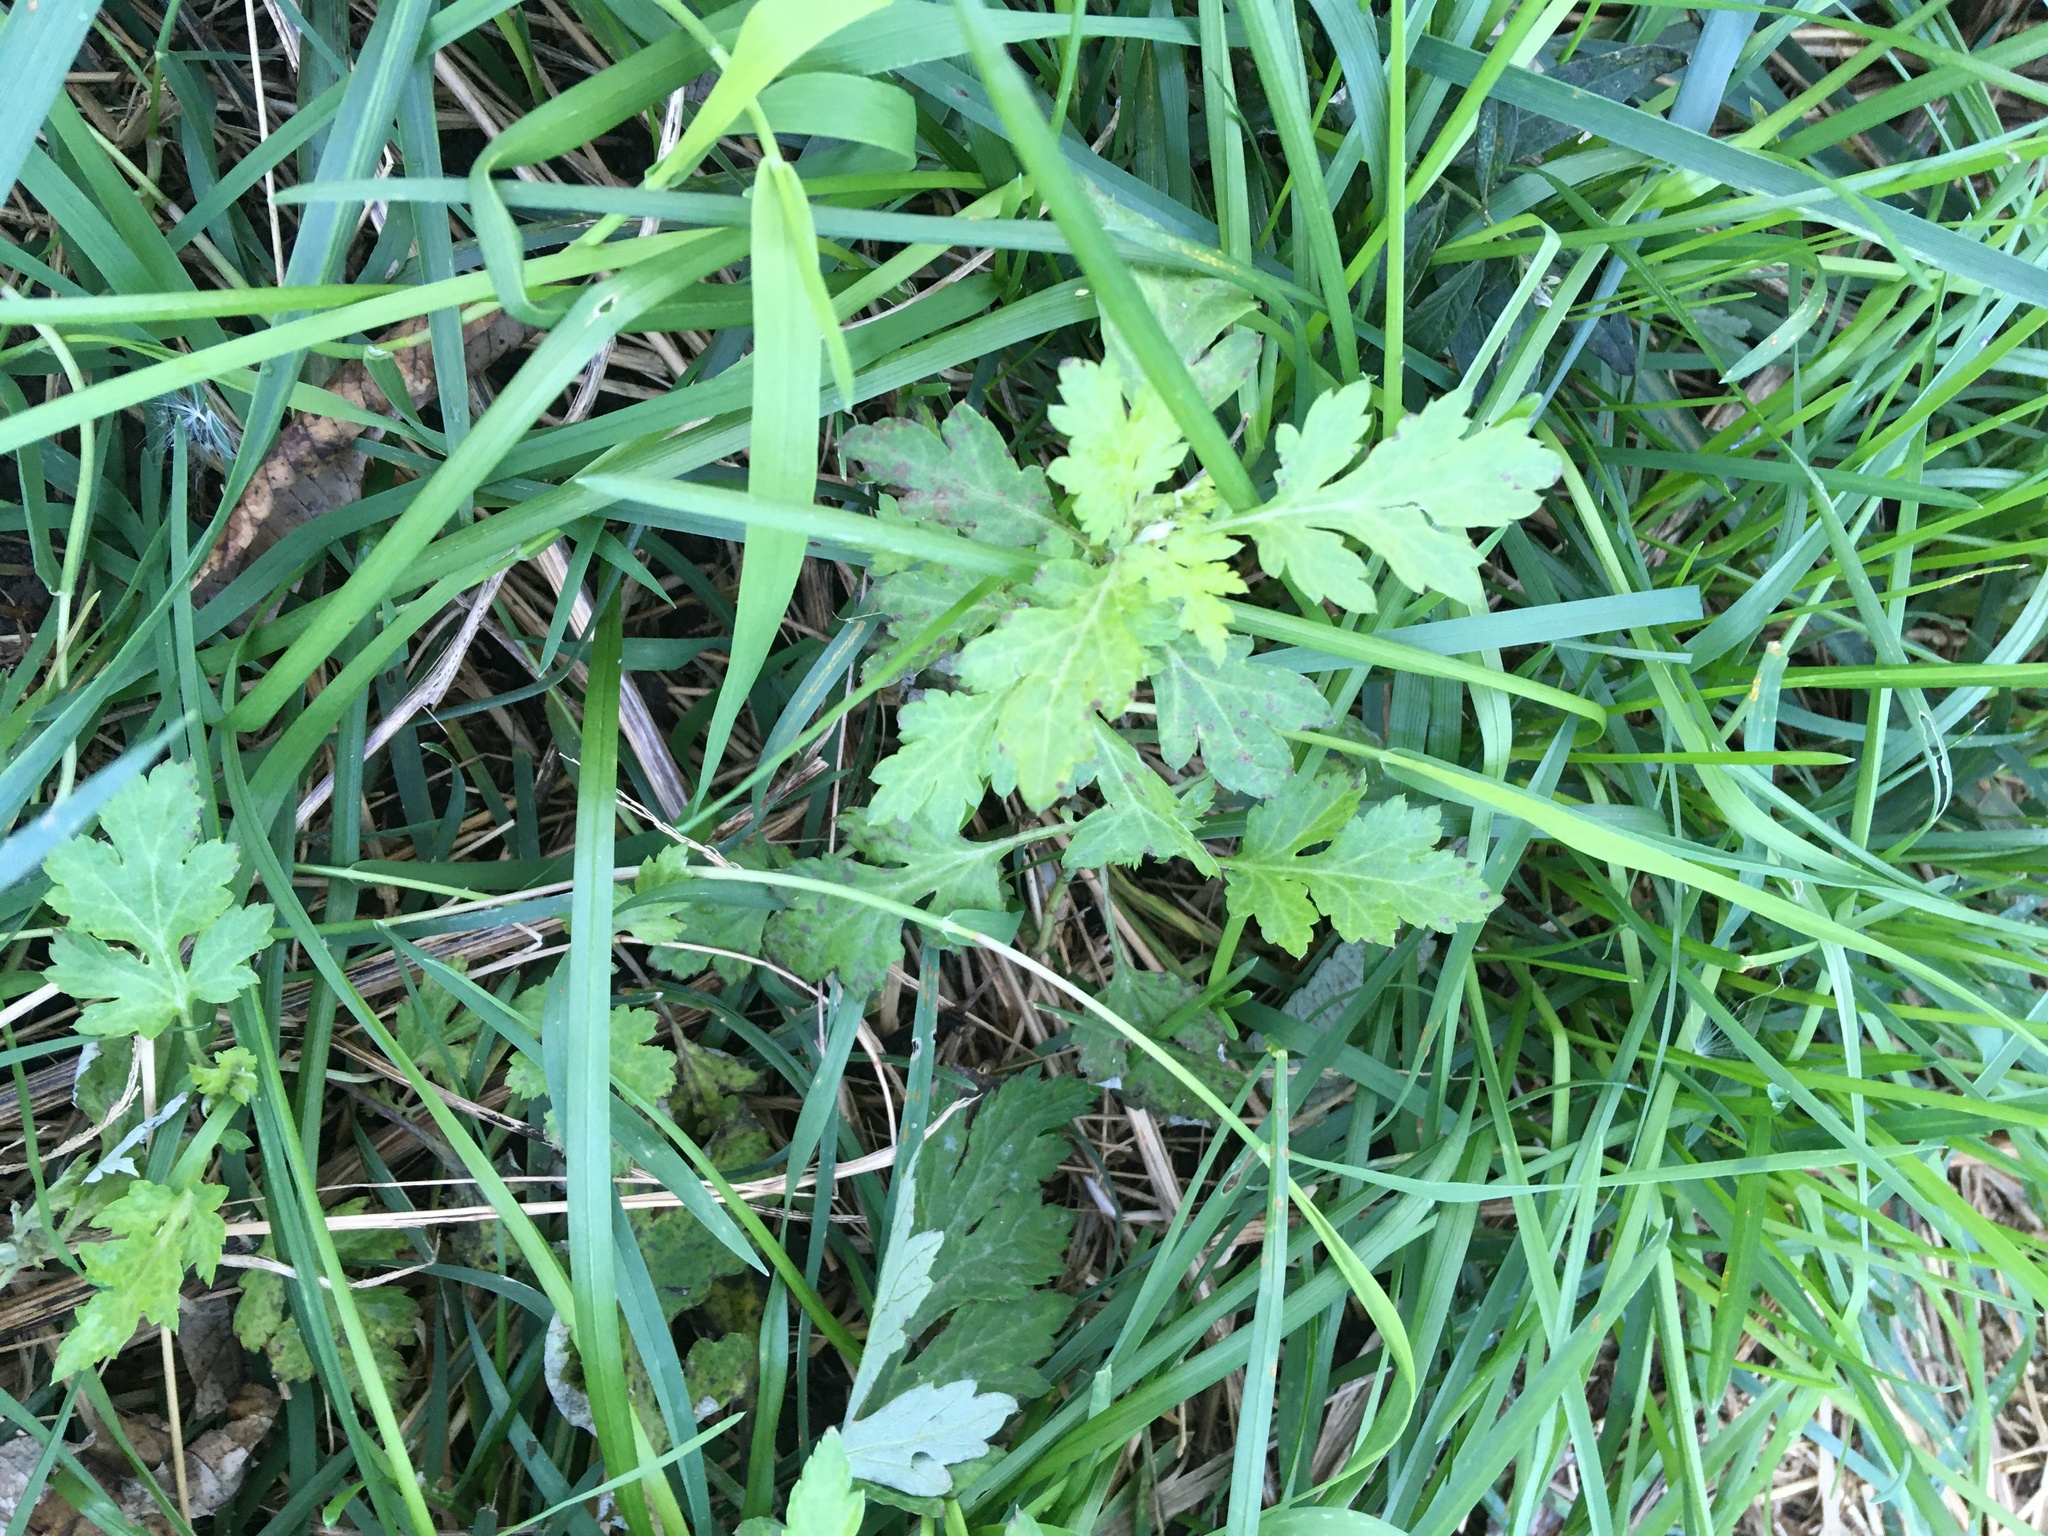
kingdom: Plantae
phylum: Tracheophyta
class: Magnoliopsida
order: Asterales
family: Asteraceae
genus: Artemisia
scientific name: Artemisia vulgaris
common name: Mugwort
